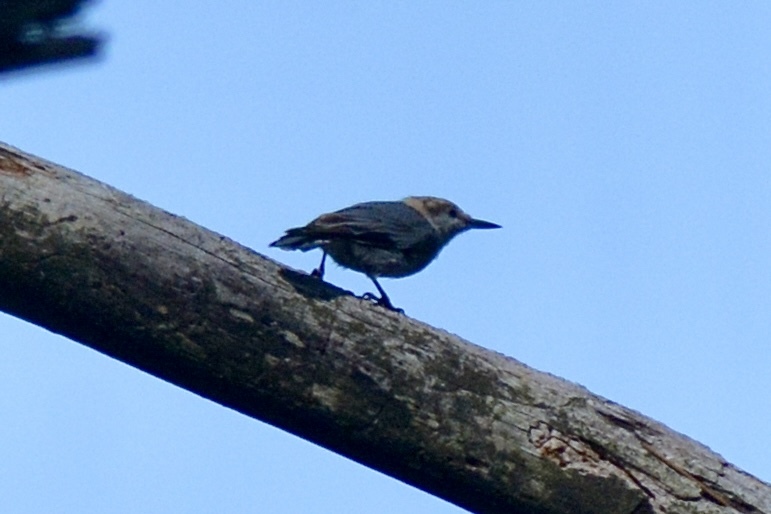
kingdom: Animalia
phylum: Chordata
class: Aves
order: Passeriformes
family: Sittidae
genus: Sitta
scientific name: Sitta pusilla
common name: Brown-headed nuthatch
